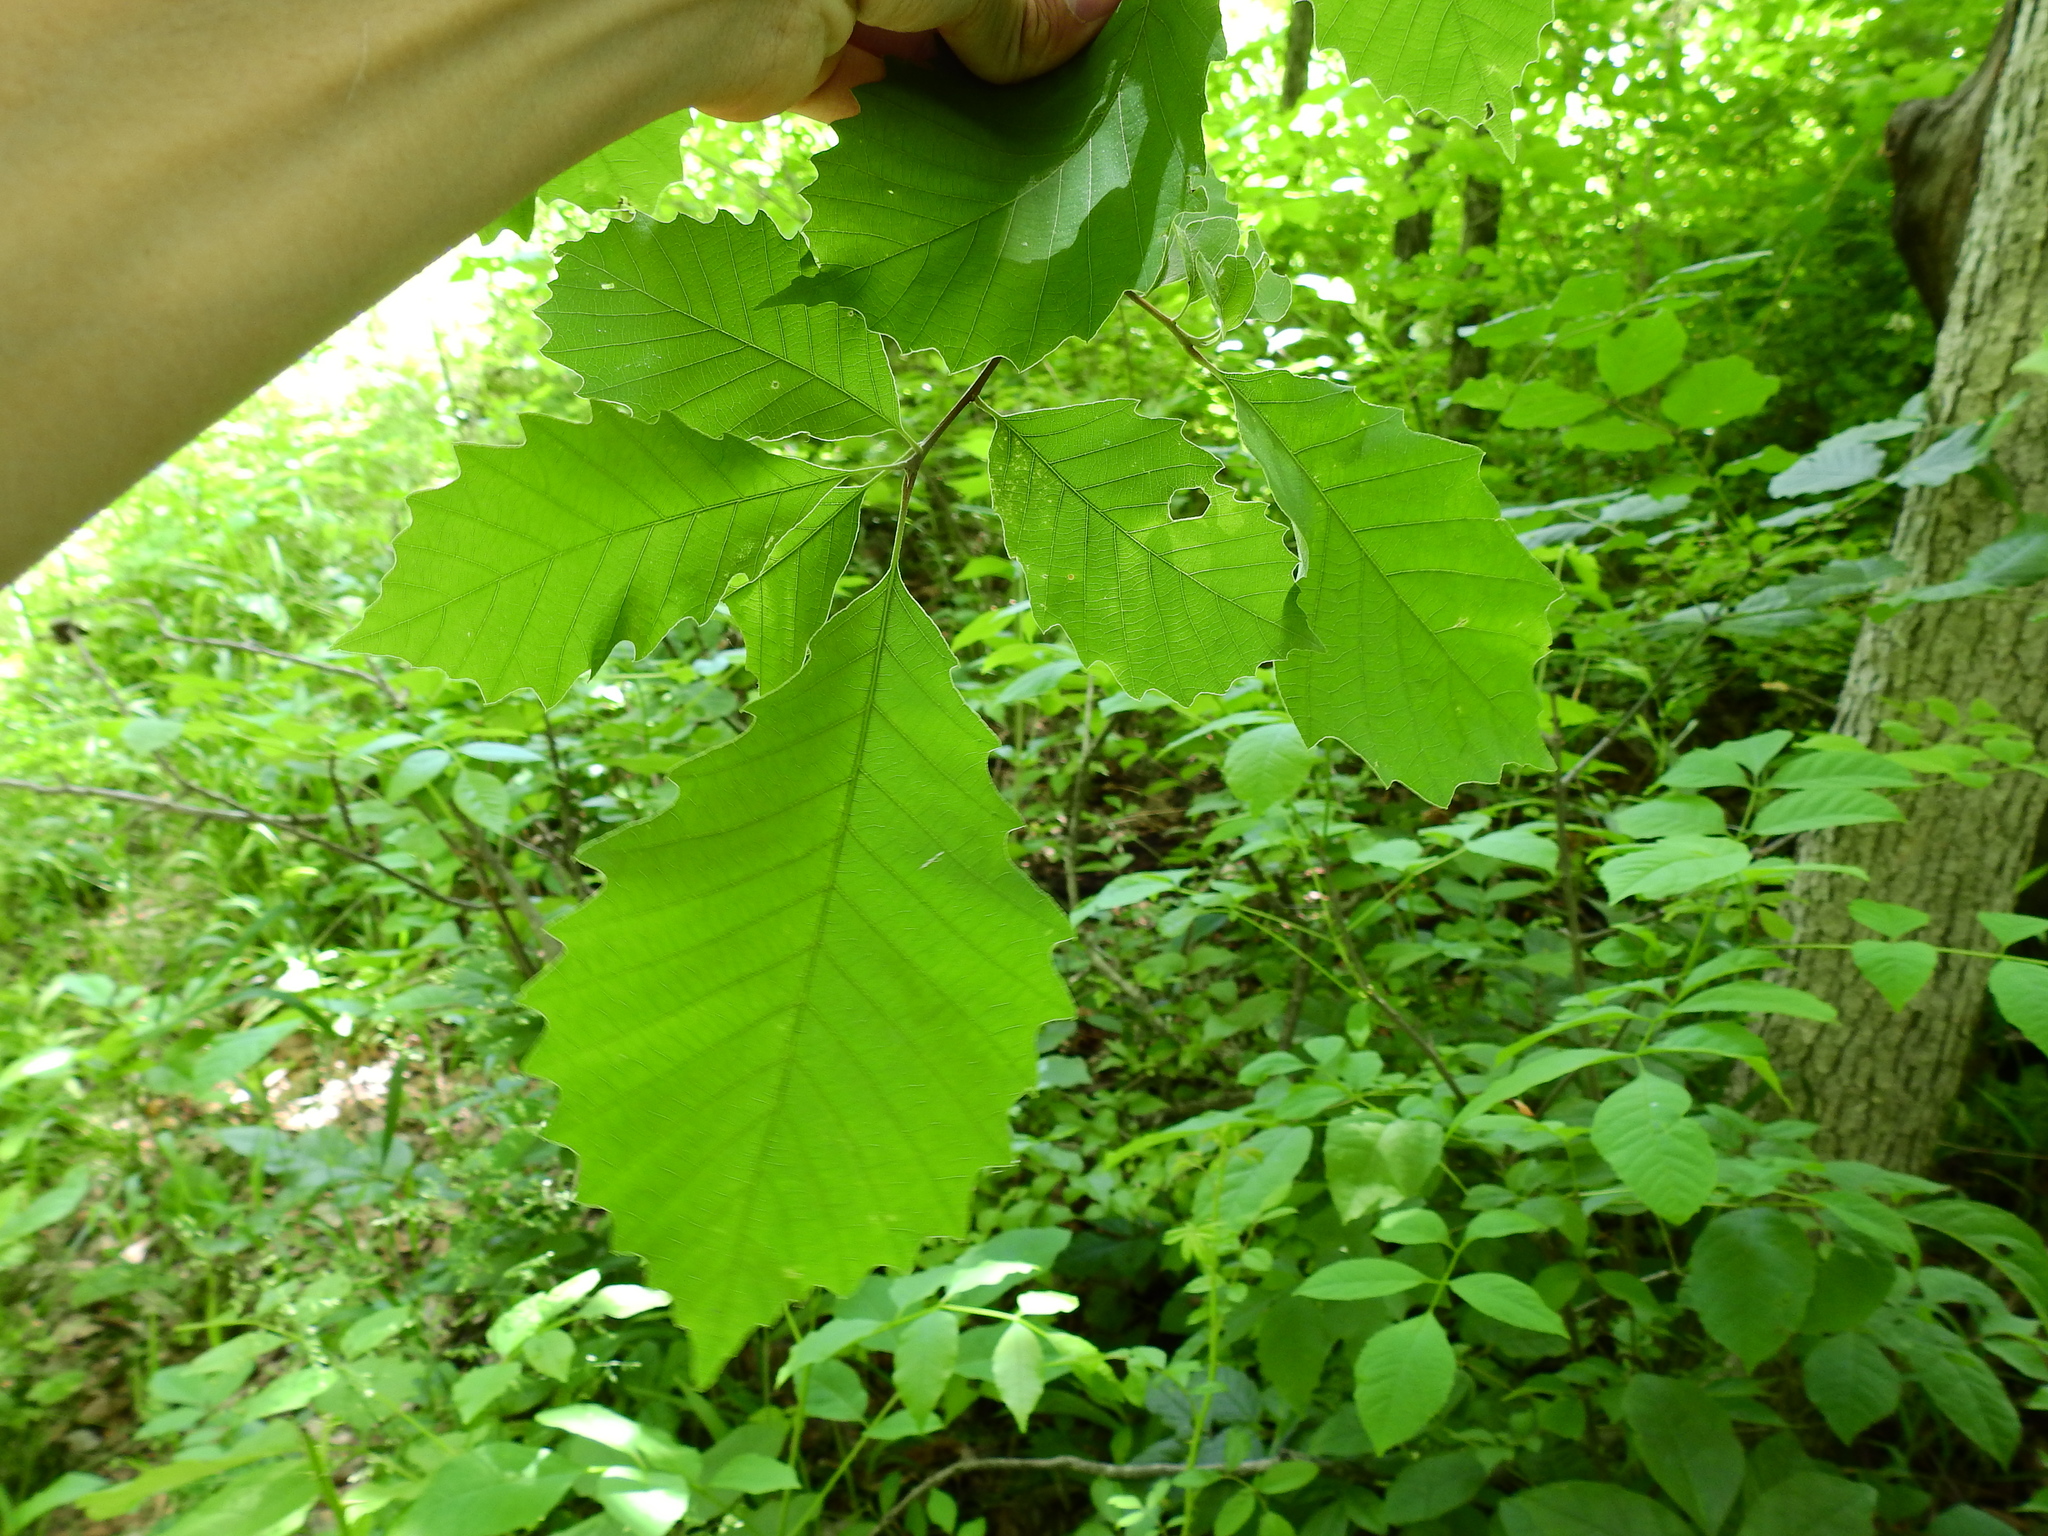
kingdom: Plantae
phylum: Tracheophyta
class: Magnoliopsida
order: Fagales
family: Fagaceae
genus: Quercus
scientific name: Quercus muehlenbergii
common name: Chinkapin oak
